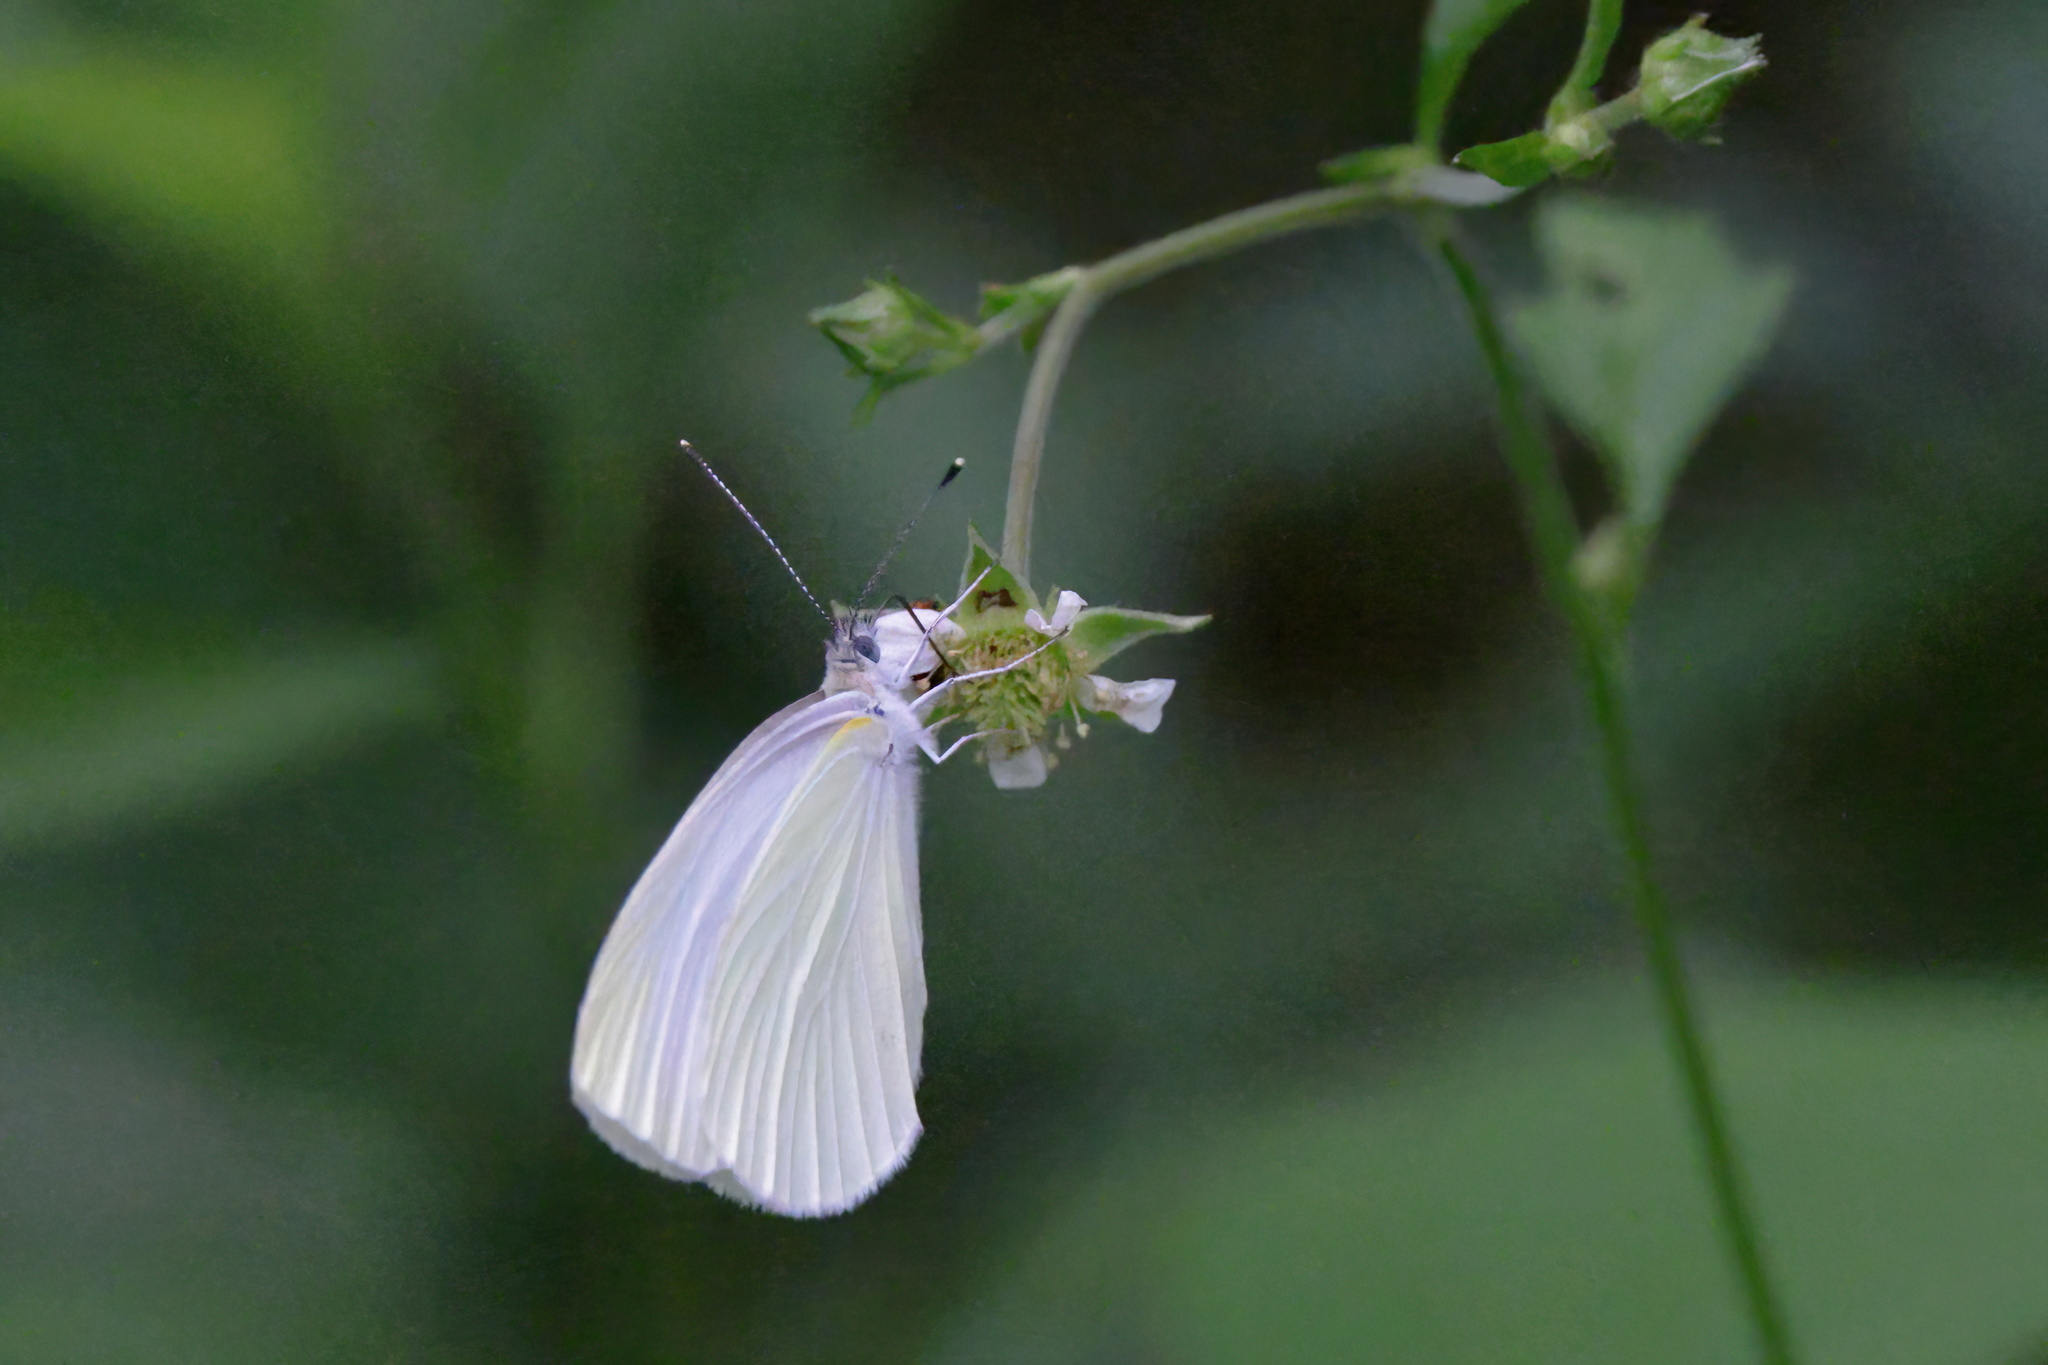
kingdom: Animalia
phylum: Arthropoda
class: Insecta
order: Lepidoptera
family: Pieridae
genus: Pieris
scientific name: Pieris oleracea
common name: Mustard white
